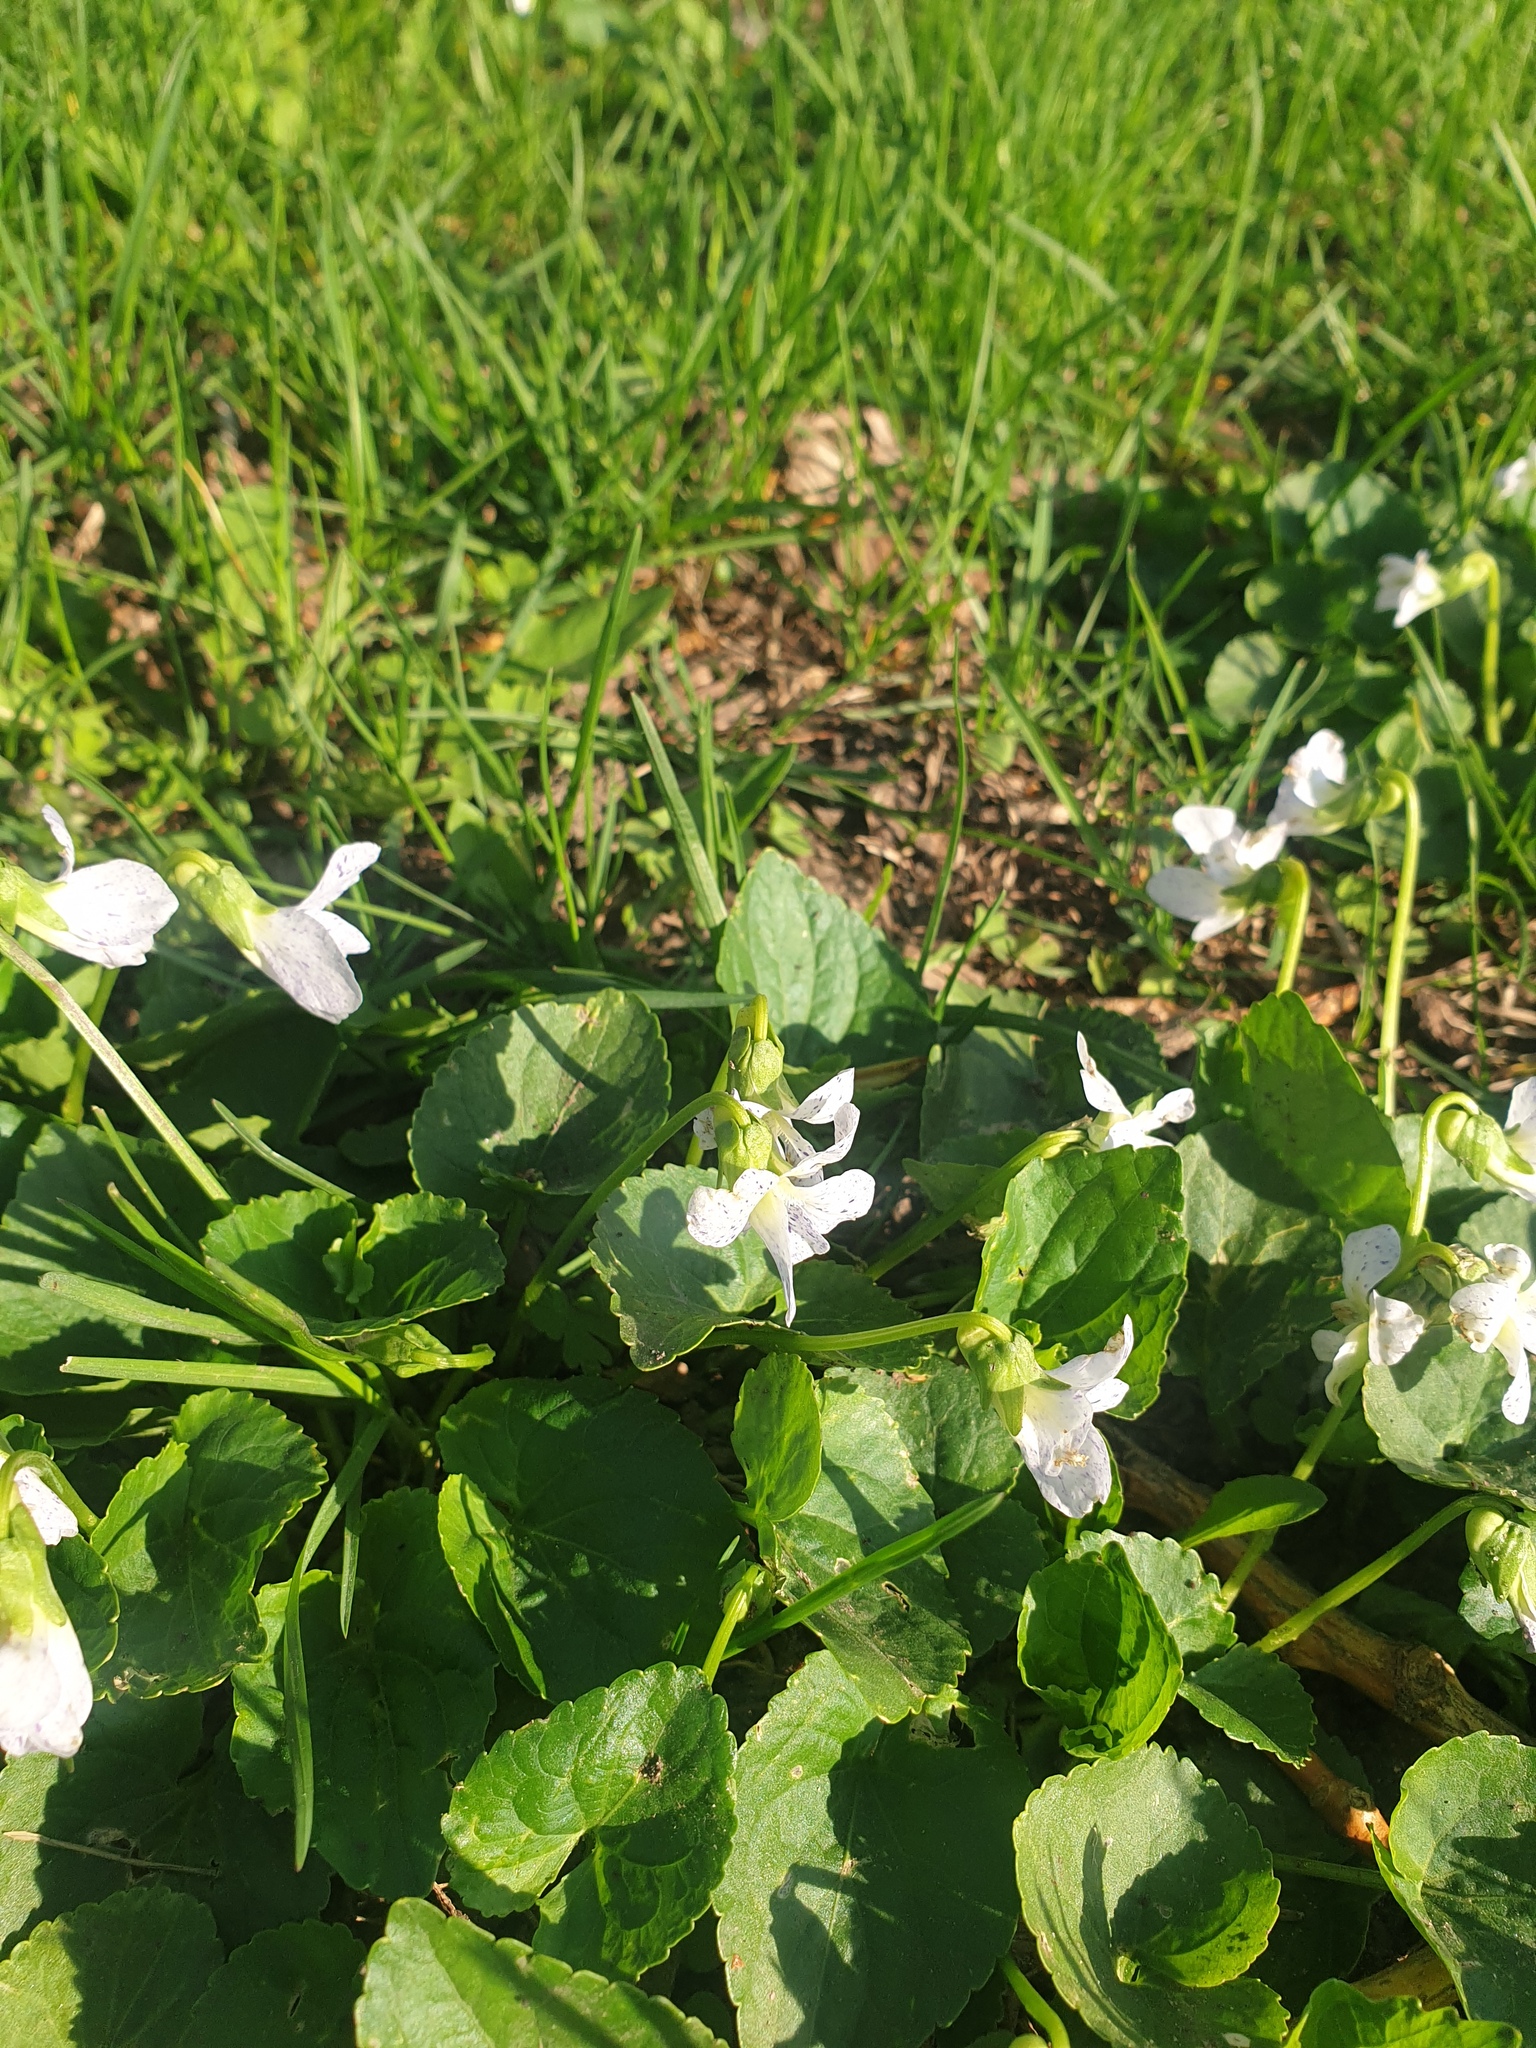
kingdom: Plantae
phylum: Tracheophyta
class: Magnoliopsida
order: Malpighiales
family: Violaceae
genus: Viola
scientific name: Viola communis
